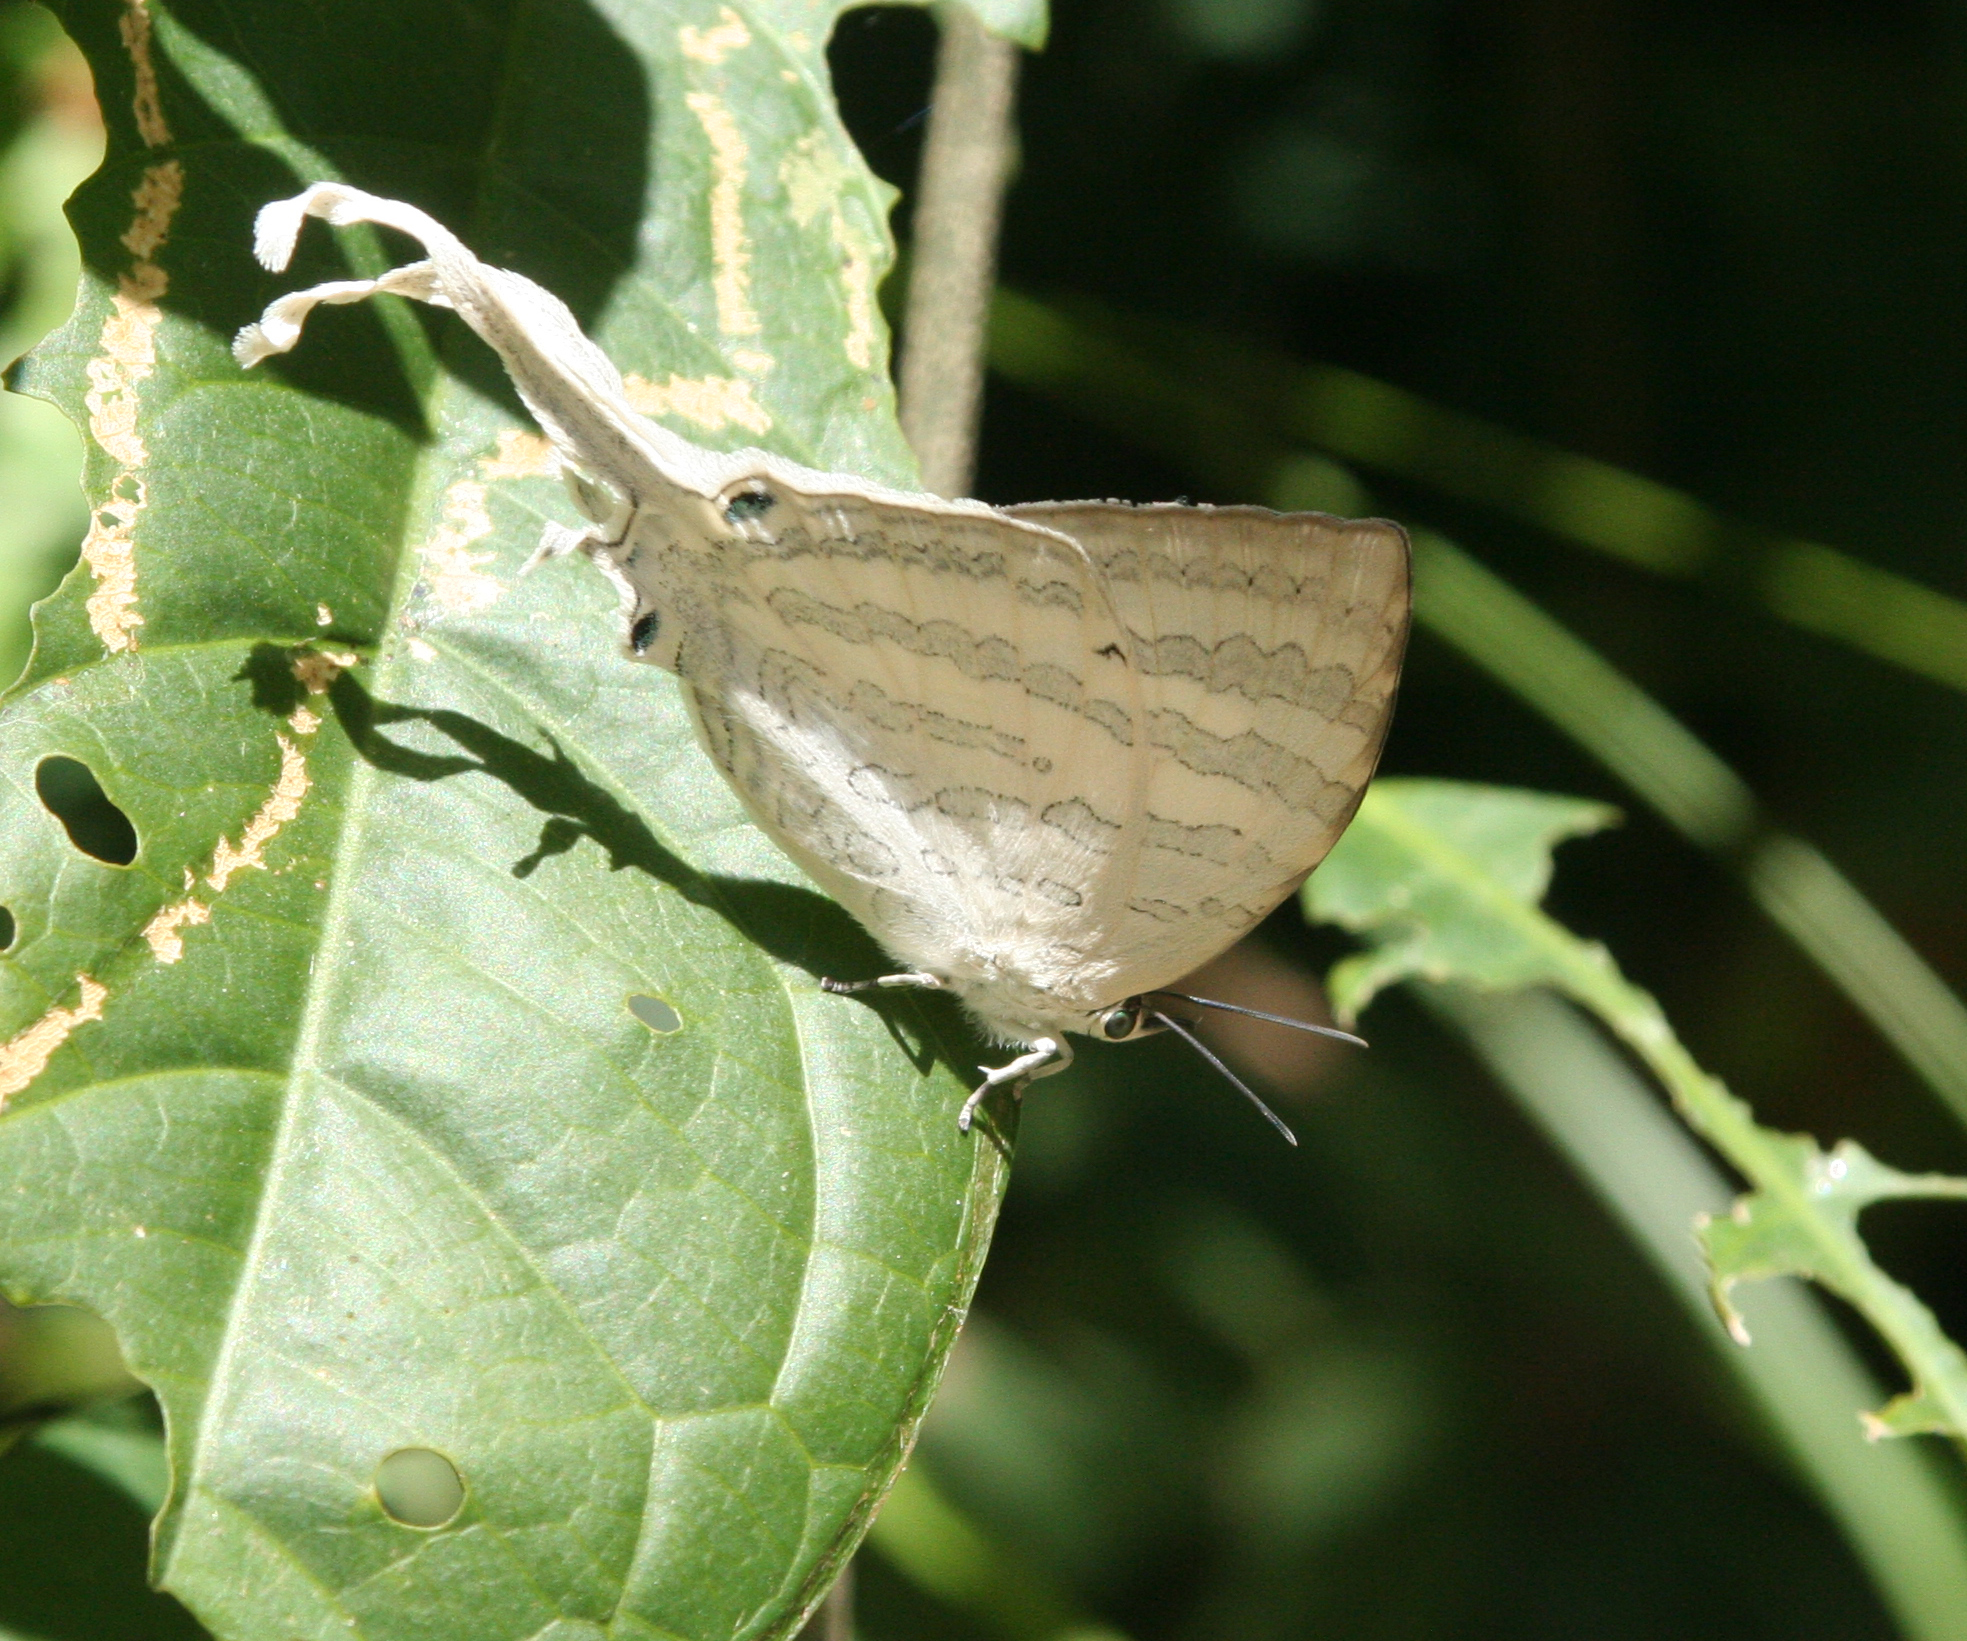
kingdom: Animalia
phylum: Arthropoda
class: Insecta
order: Lepidoptera
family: Lycaenidae
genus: Neomyrina
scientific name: Neomyrina hiemalis
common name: White imperial
